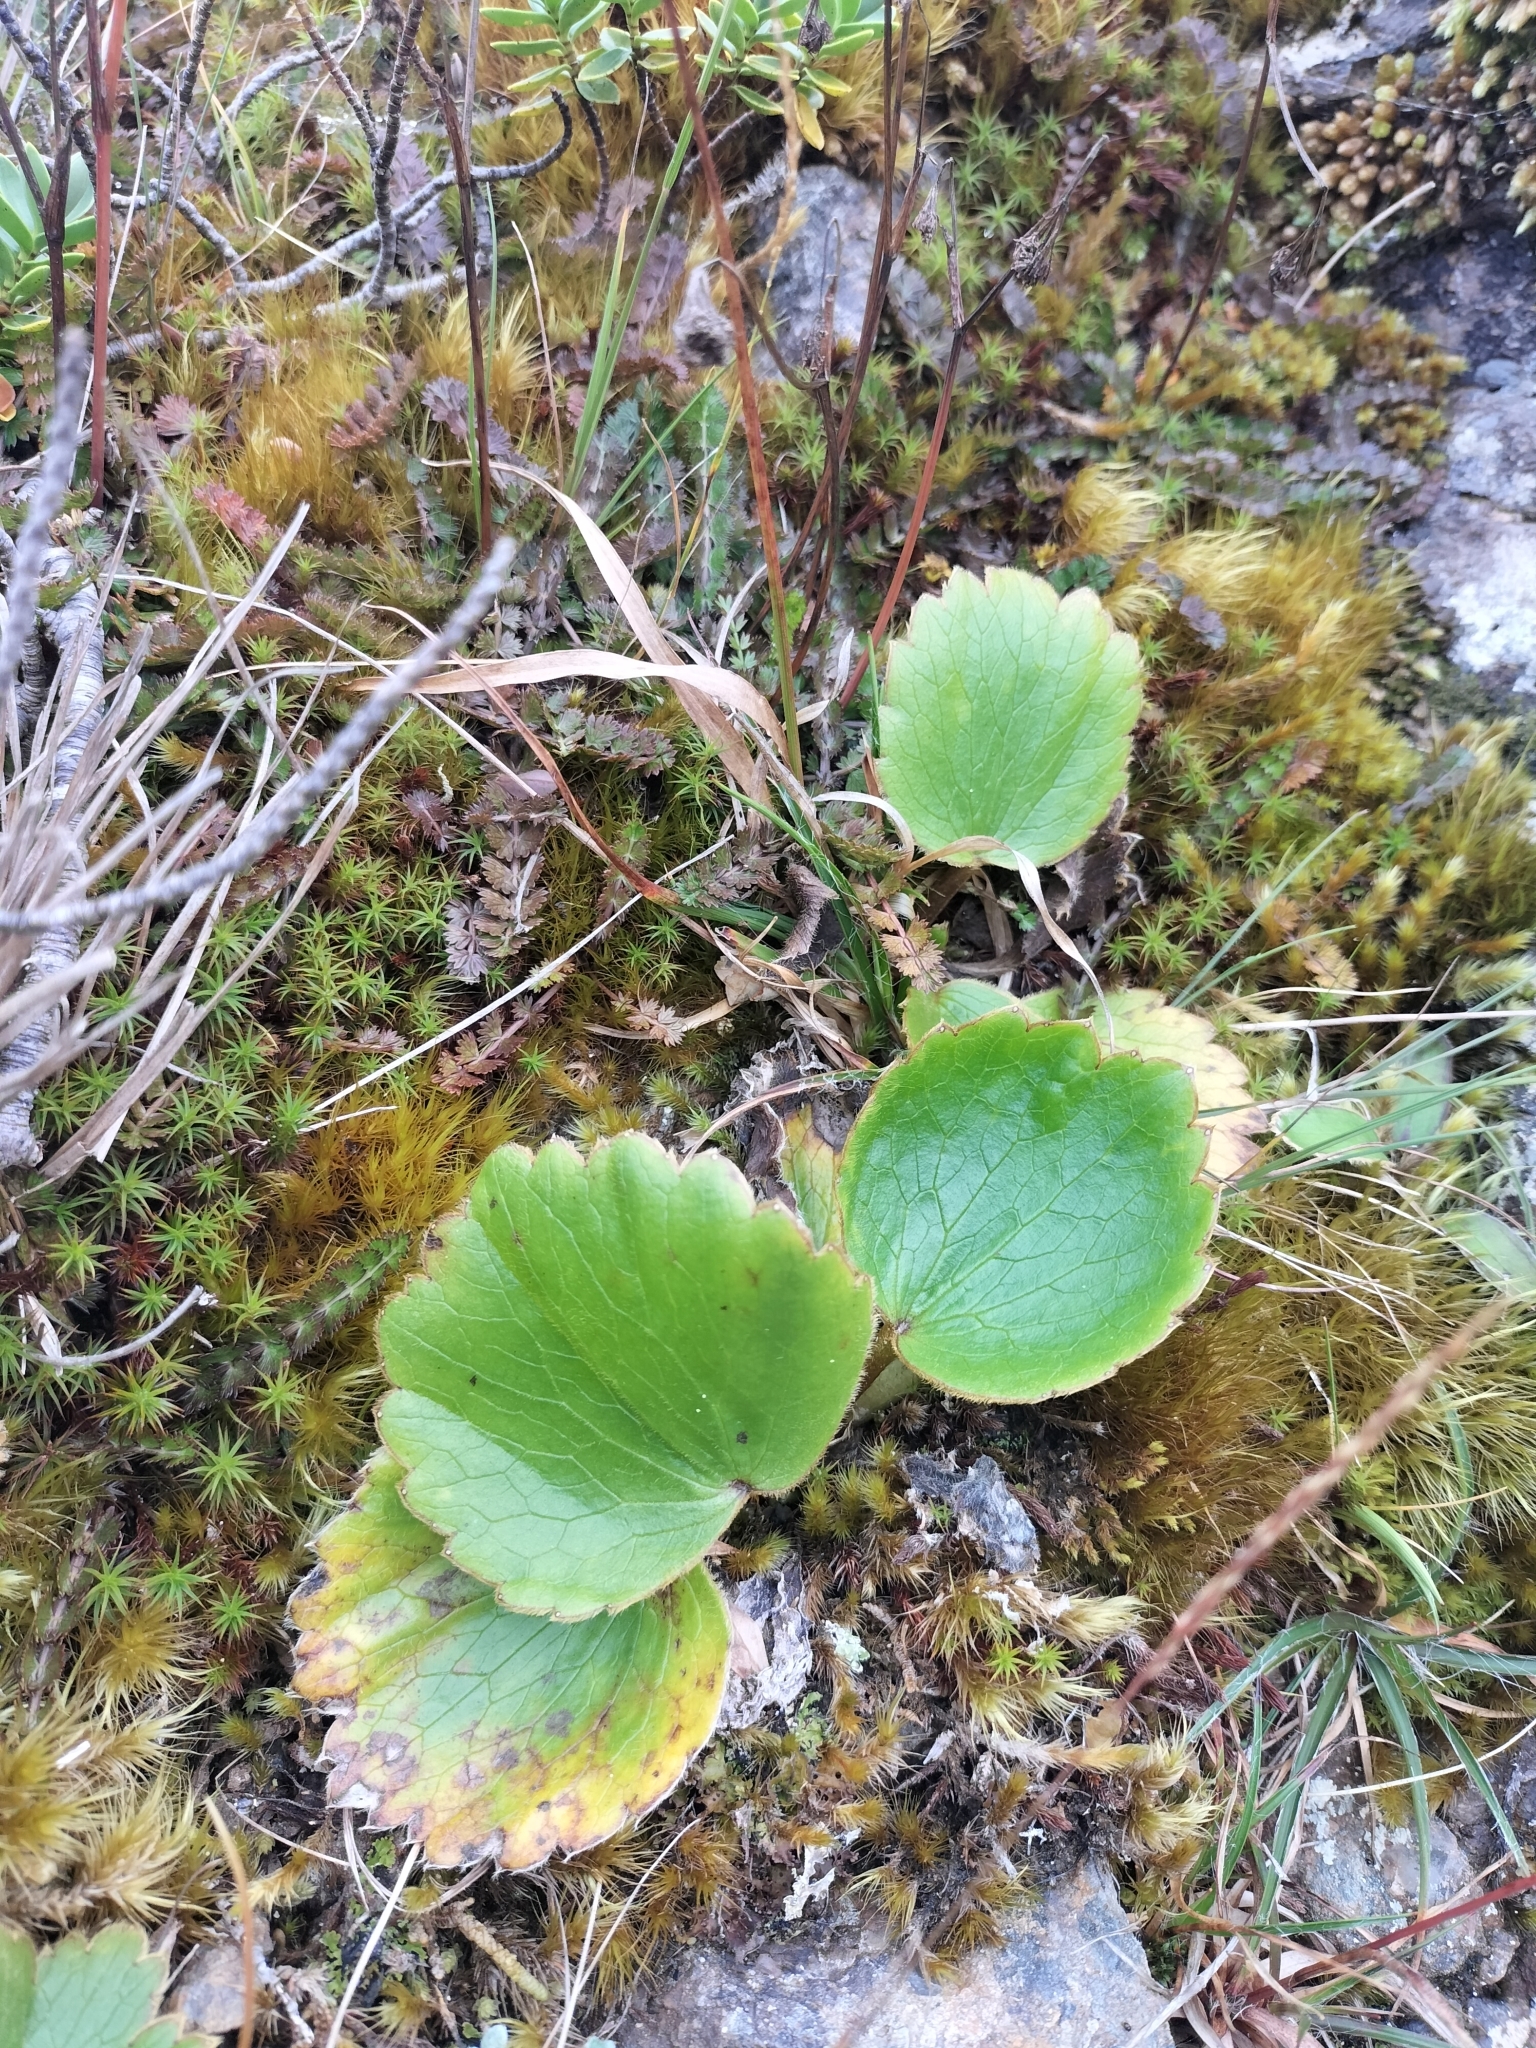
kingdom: Plantae
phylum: Tracheophyta
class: Magnoliopsida
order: Ranunculales
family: Ranunculaceae
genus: Ranunculus
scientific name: Ranunculus insignis
